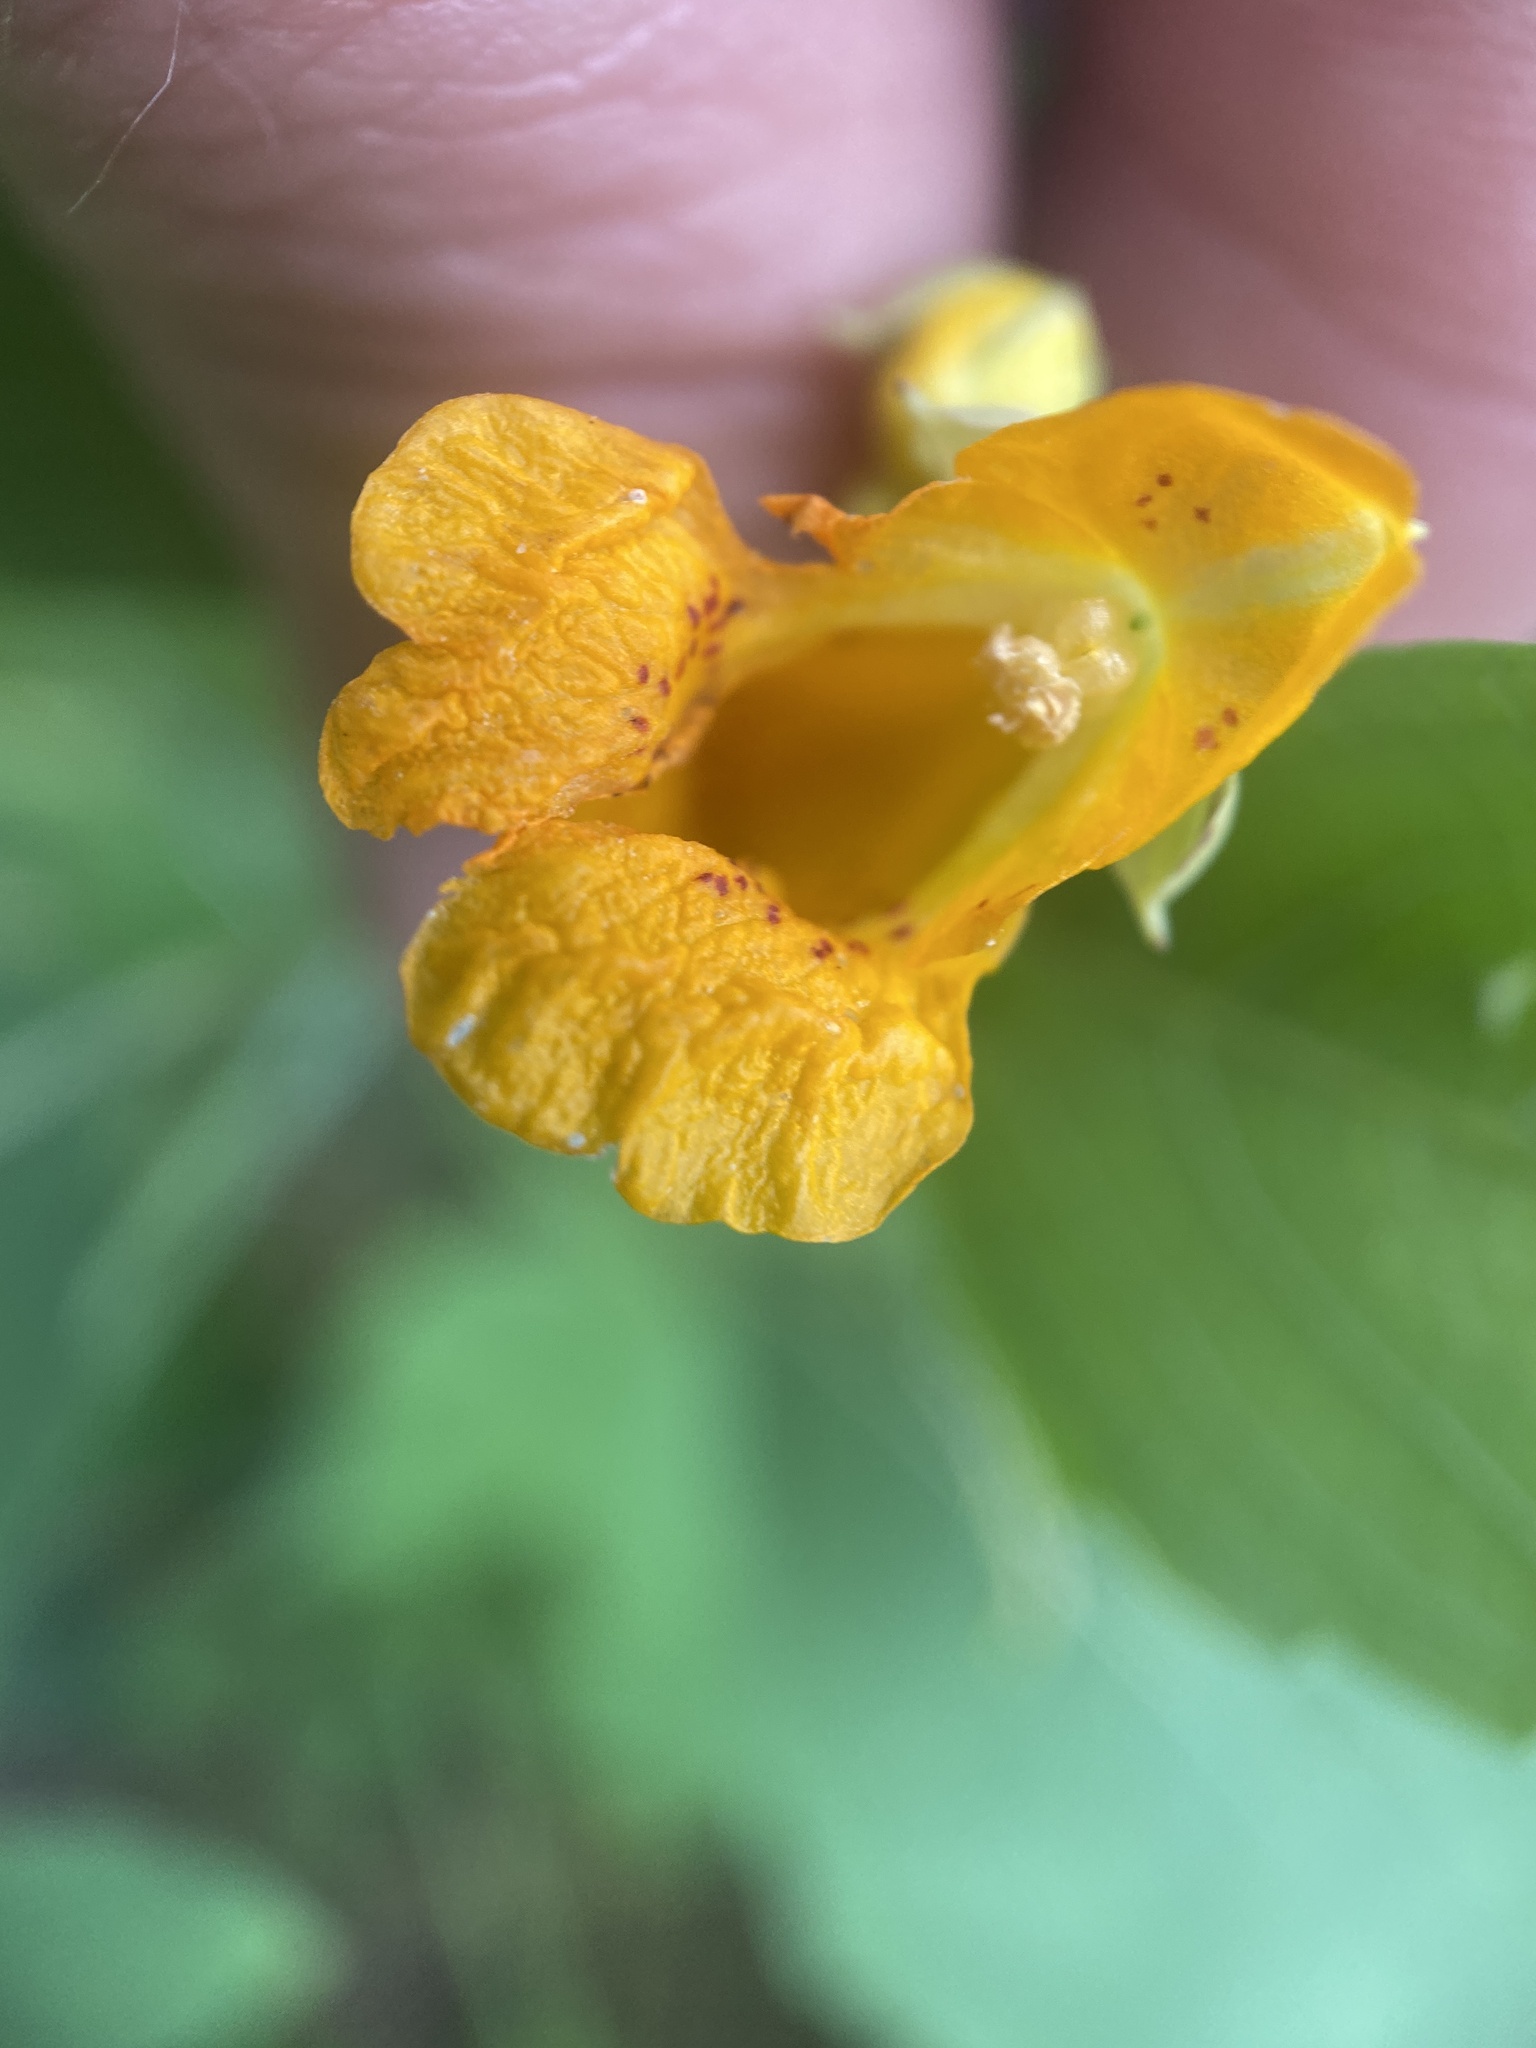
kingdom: Plantae
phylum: Tracheophyta
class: Magnoliopsida
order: Ericales
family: Balsaminaceae
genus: Impatiens
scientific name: Impatiens capensis
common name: Orange balsam
